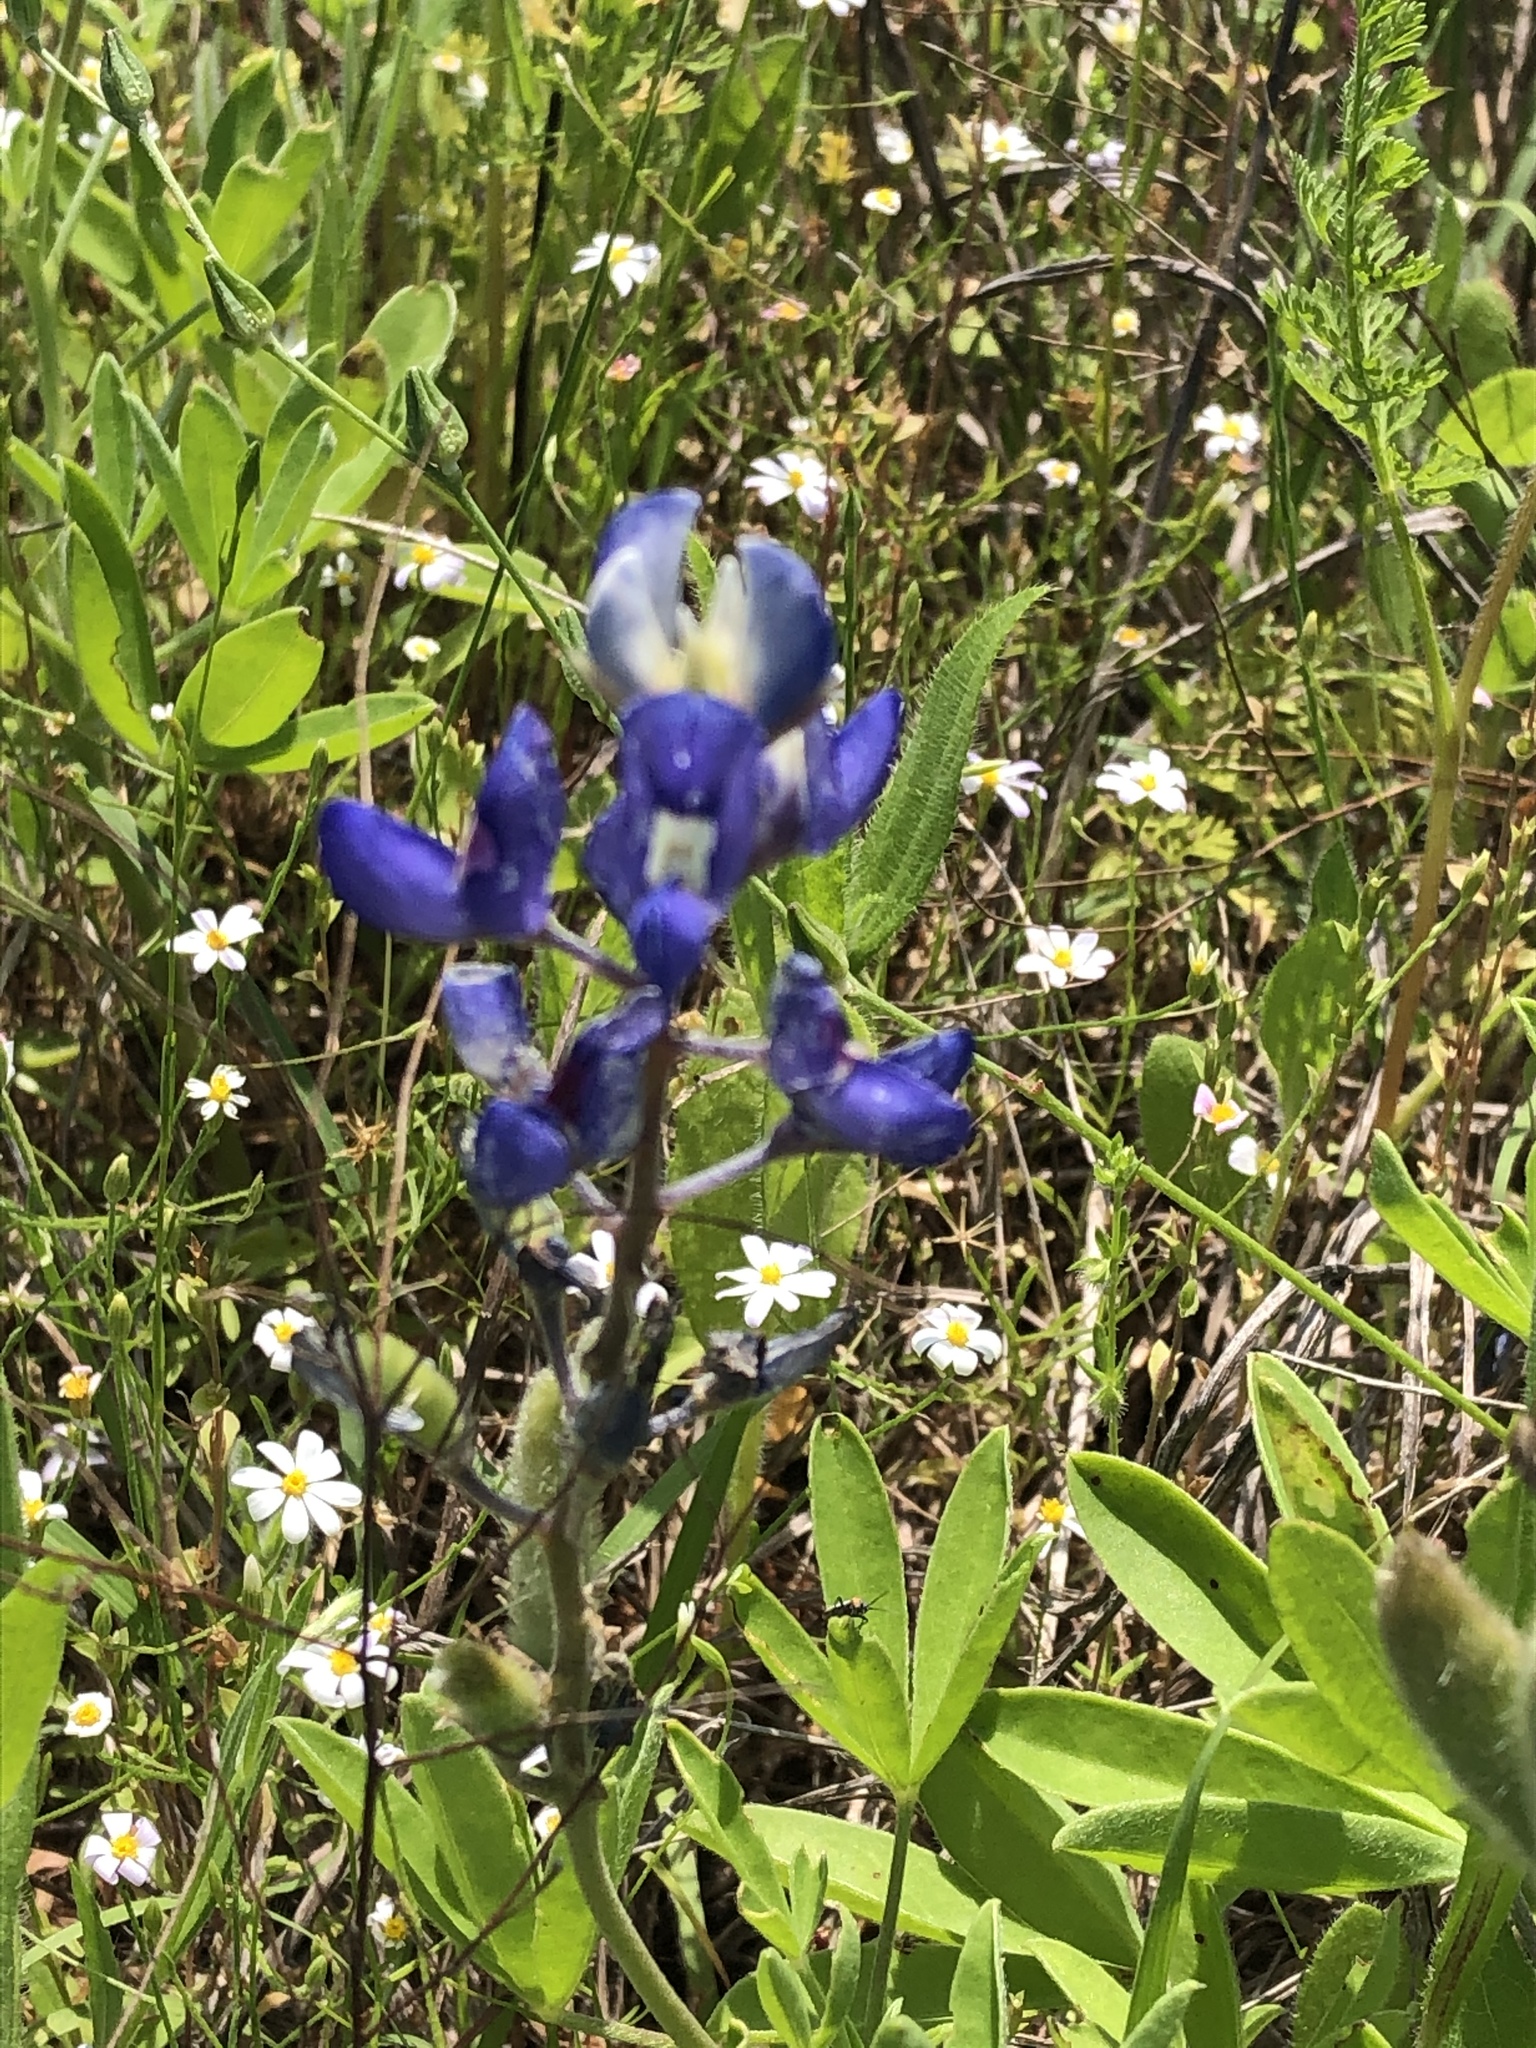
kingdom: Plantae
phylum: Tracheophyta
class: Magnoliopsida
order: Fabales
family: Fabaceae
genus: Lupinus
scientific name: Lupinus texensis
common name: Texas bluebonnet
